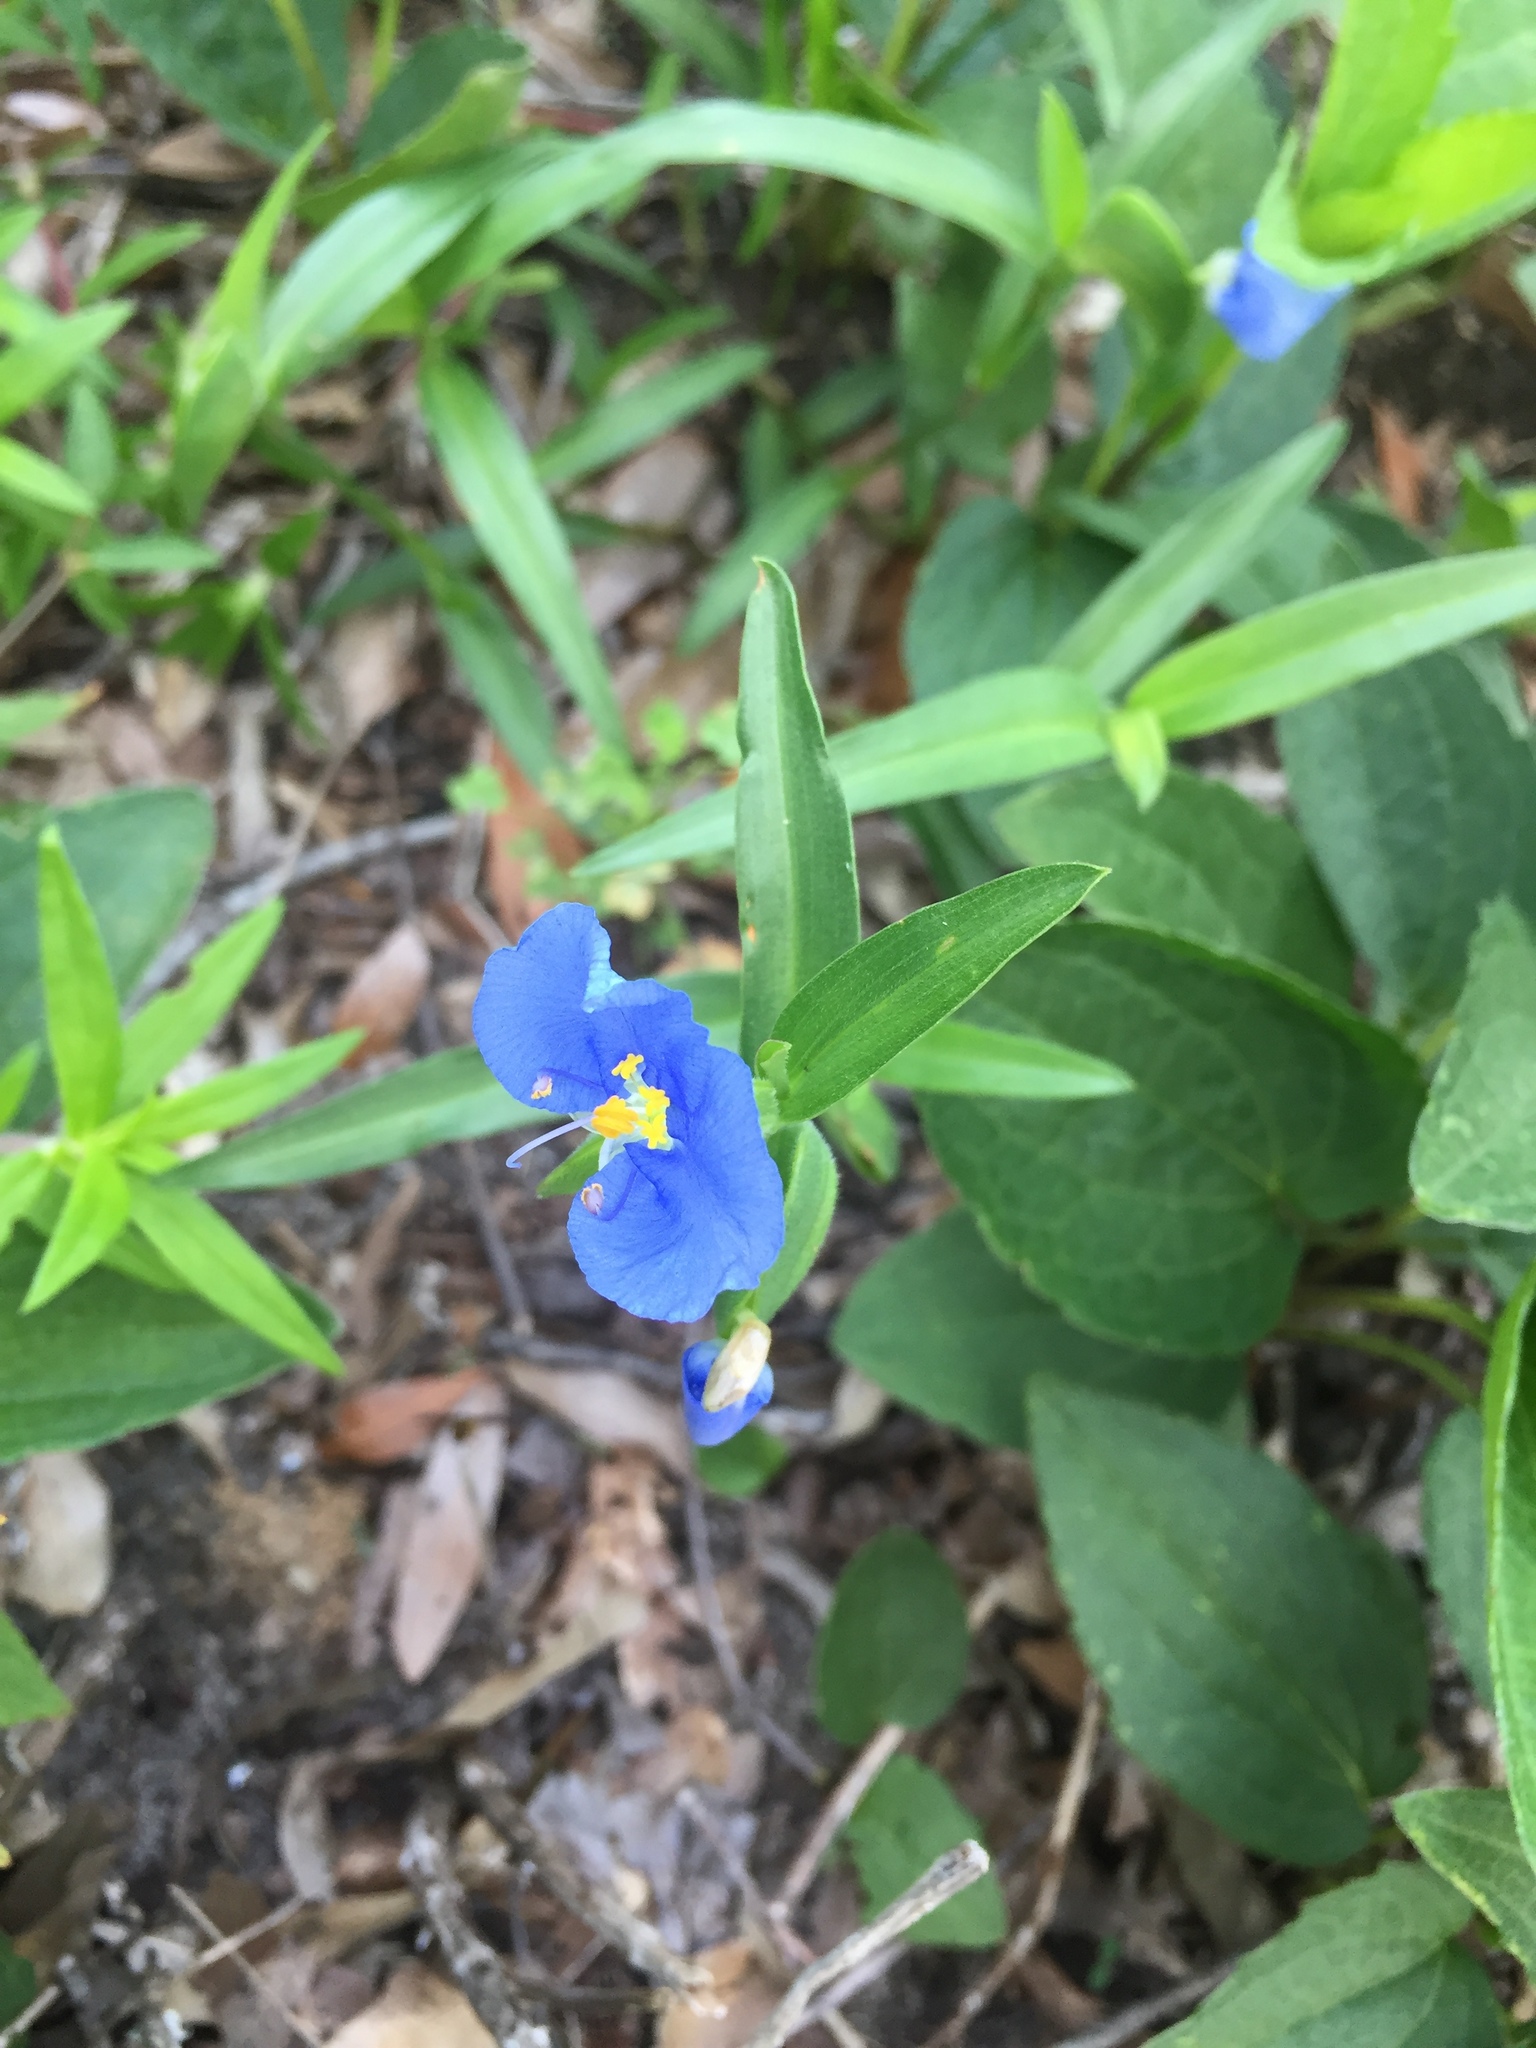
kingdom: Plantae
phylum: Tracheophyta
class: Liliopsida
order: Commelinales
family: Commelinaceae
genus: Commelina
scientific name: Commelina erecta
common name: Blousel blommetjie
